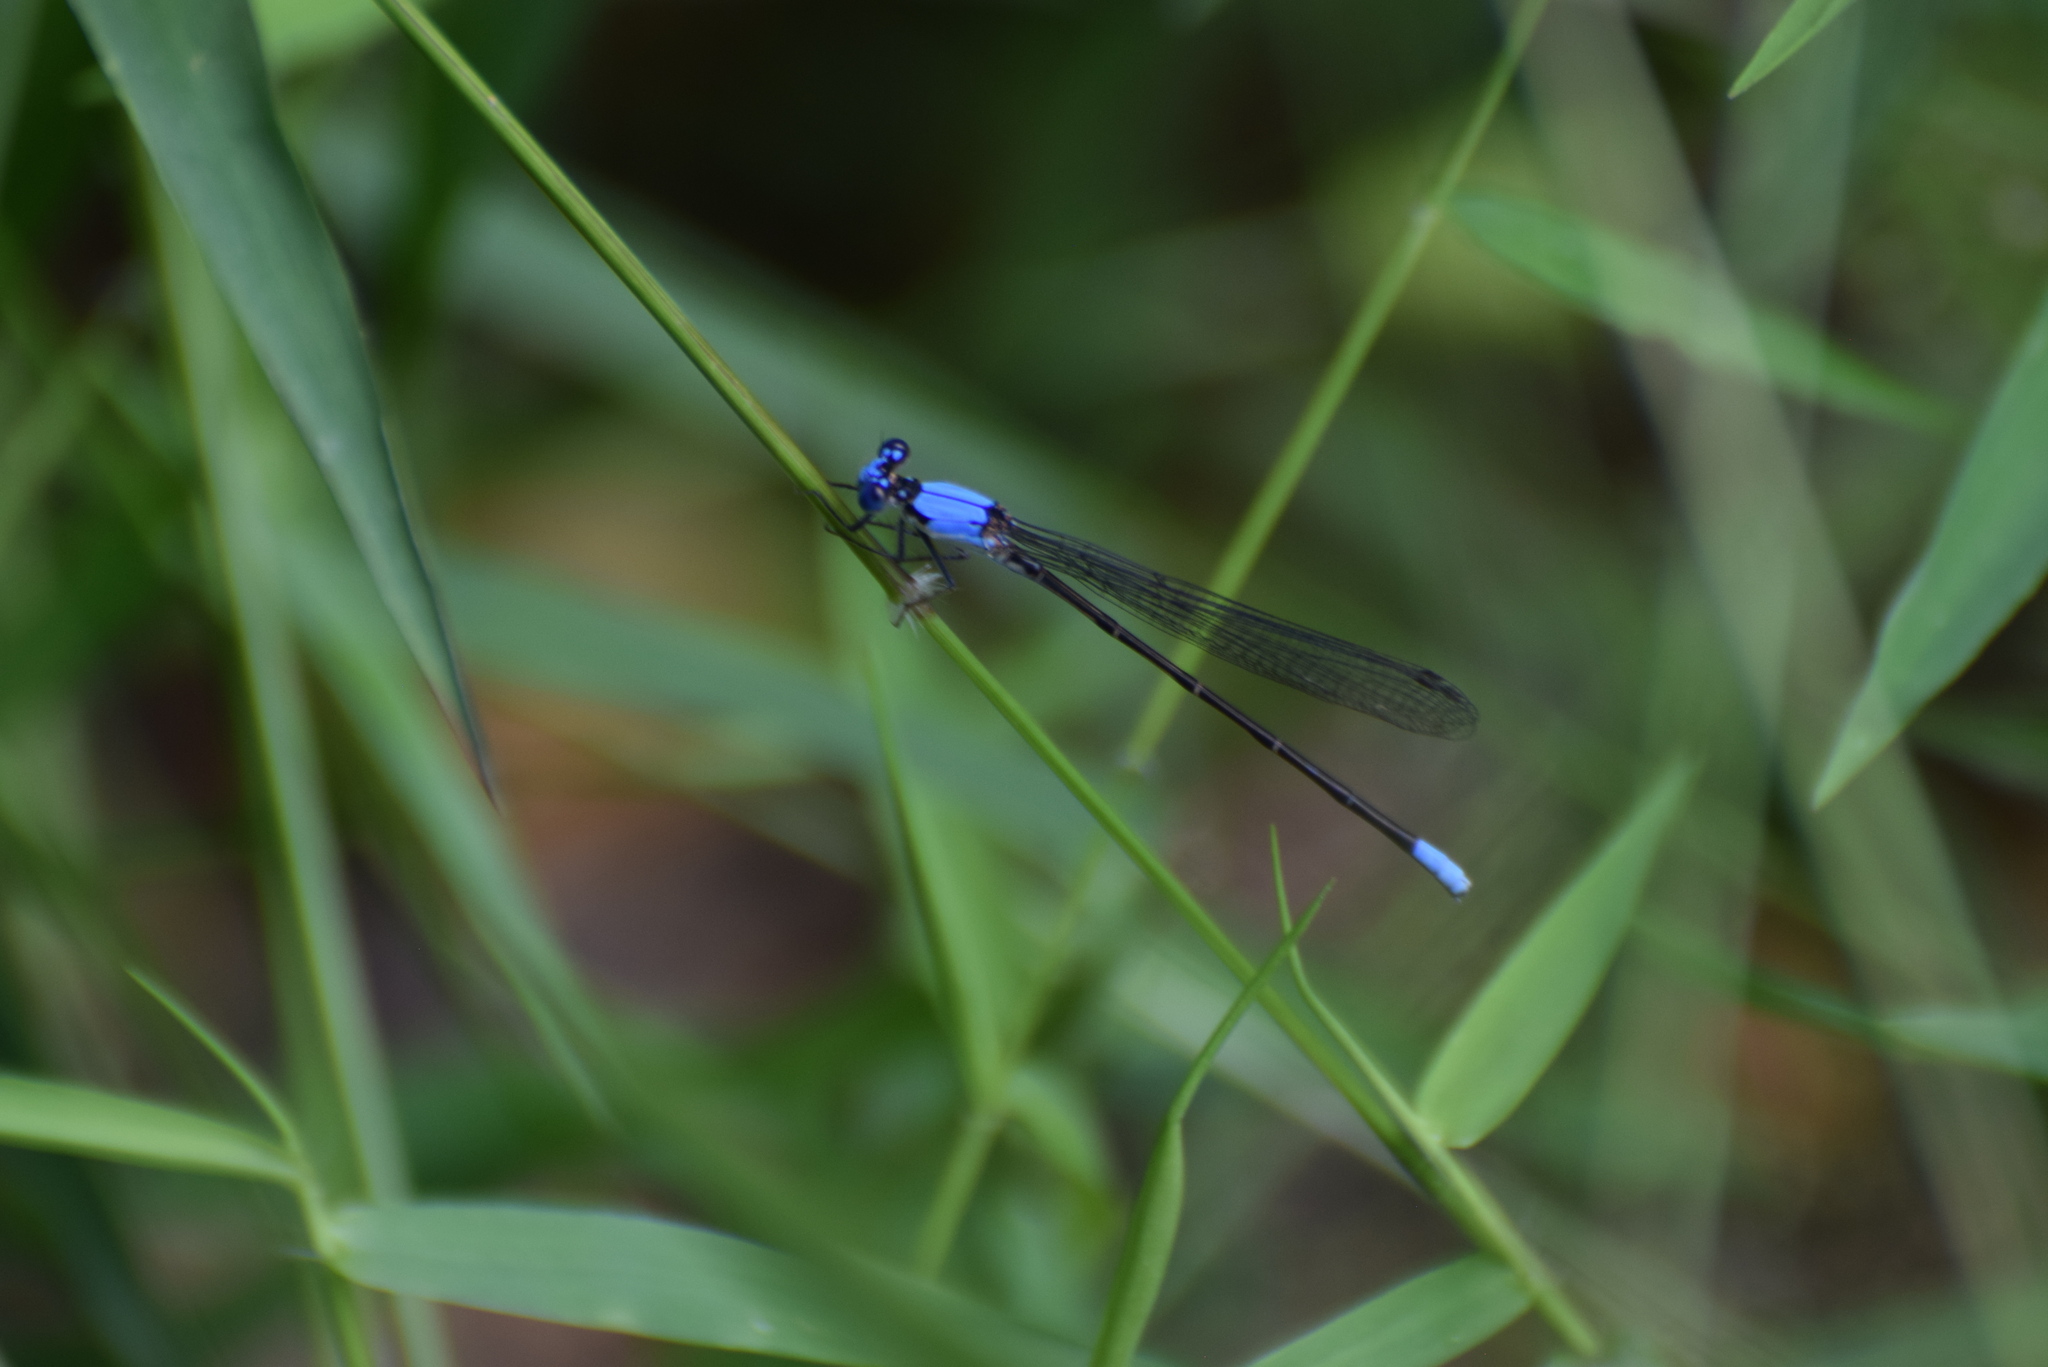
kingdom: Animalia
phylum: Arthropoda
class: Insecta
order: Odonata
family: Coenagrionidae
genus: Argia
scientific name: Argia apicalis
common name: Blue-fronted dancer
